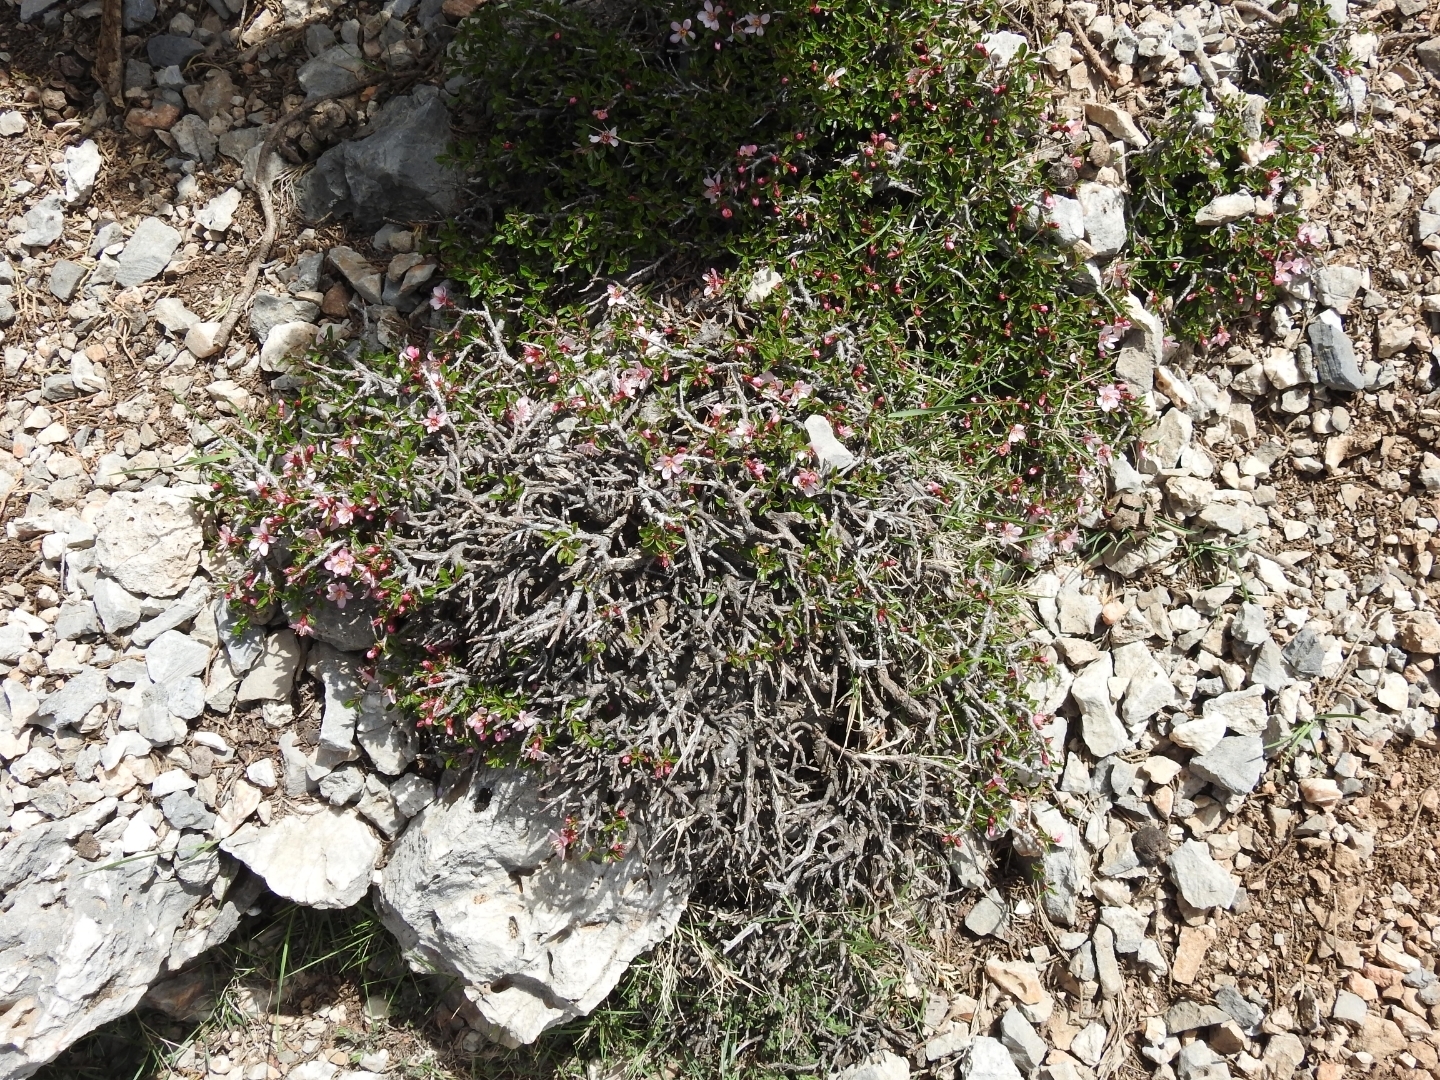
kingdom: Plantae
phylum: Tracheophyta
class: Magnoliopsida
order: Rosales
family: Rosaceae
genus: Prunus
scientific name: Prunus prostrata
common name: Mountain cherry
